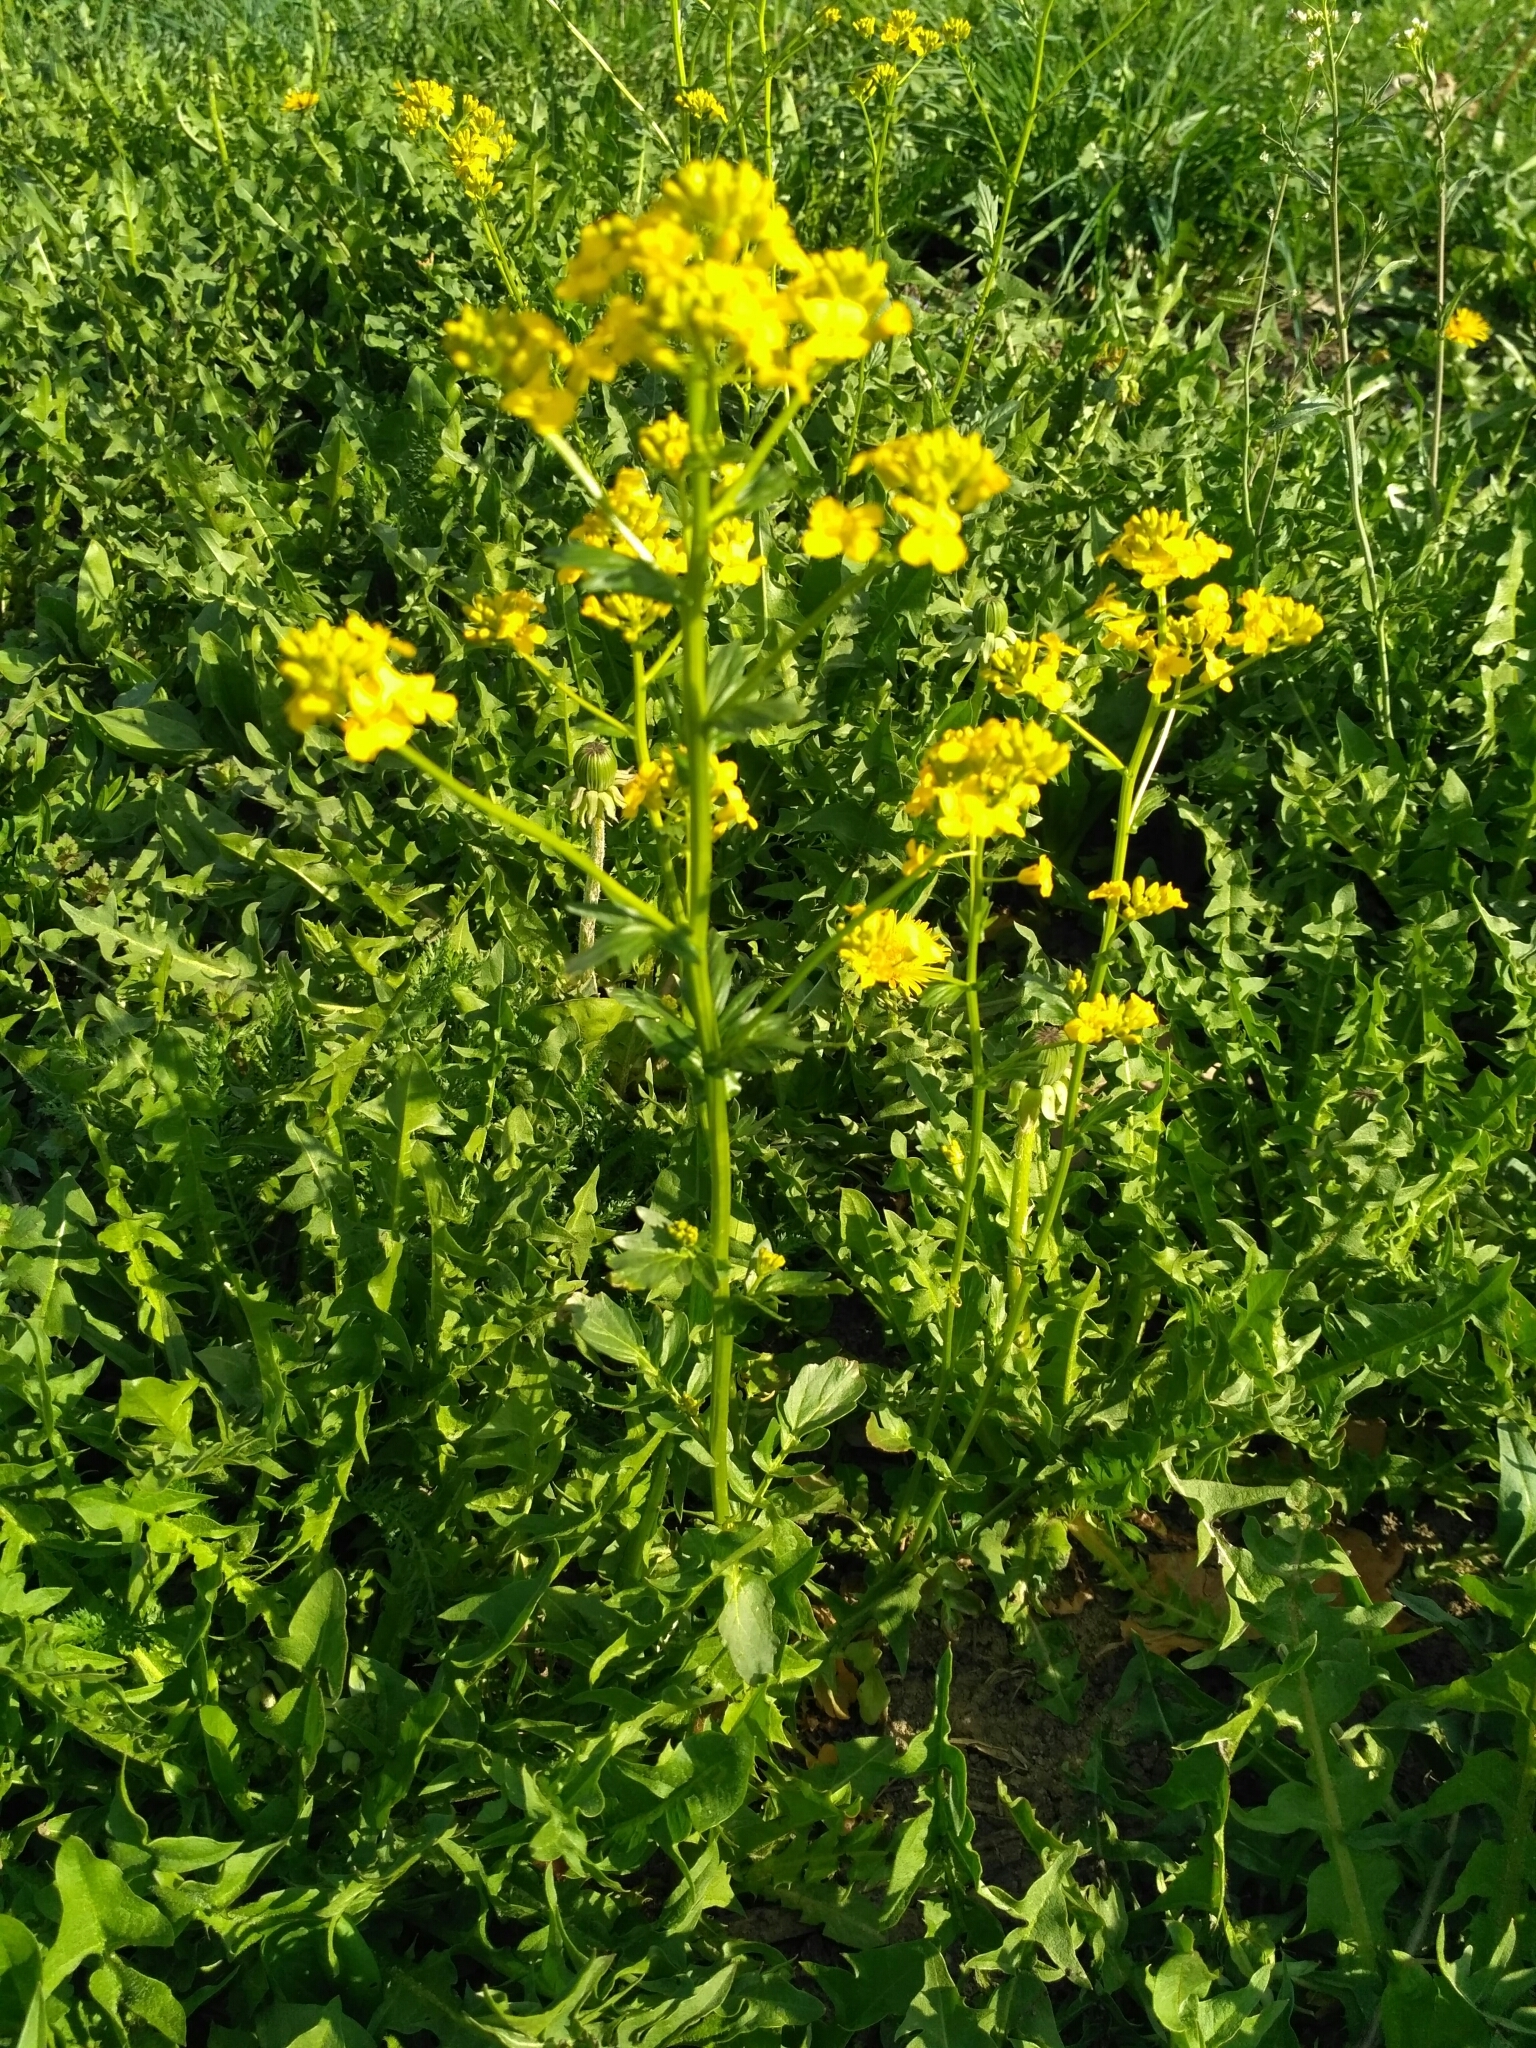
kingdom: Plantae
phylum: Tracheophyta
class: Magnoliopsida
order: Brassicales
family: Brassicaceae
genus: Barbarea
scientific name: Barbarea vulgaris
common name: Cressy-greens
